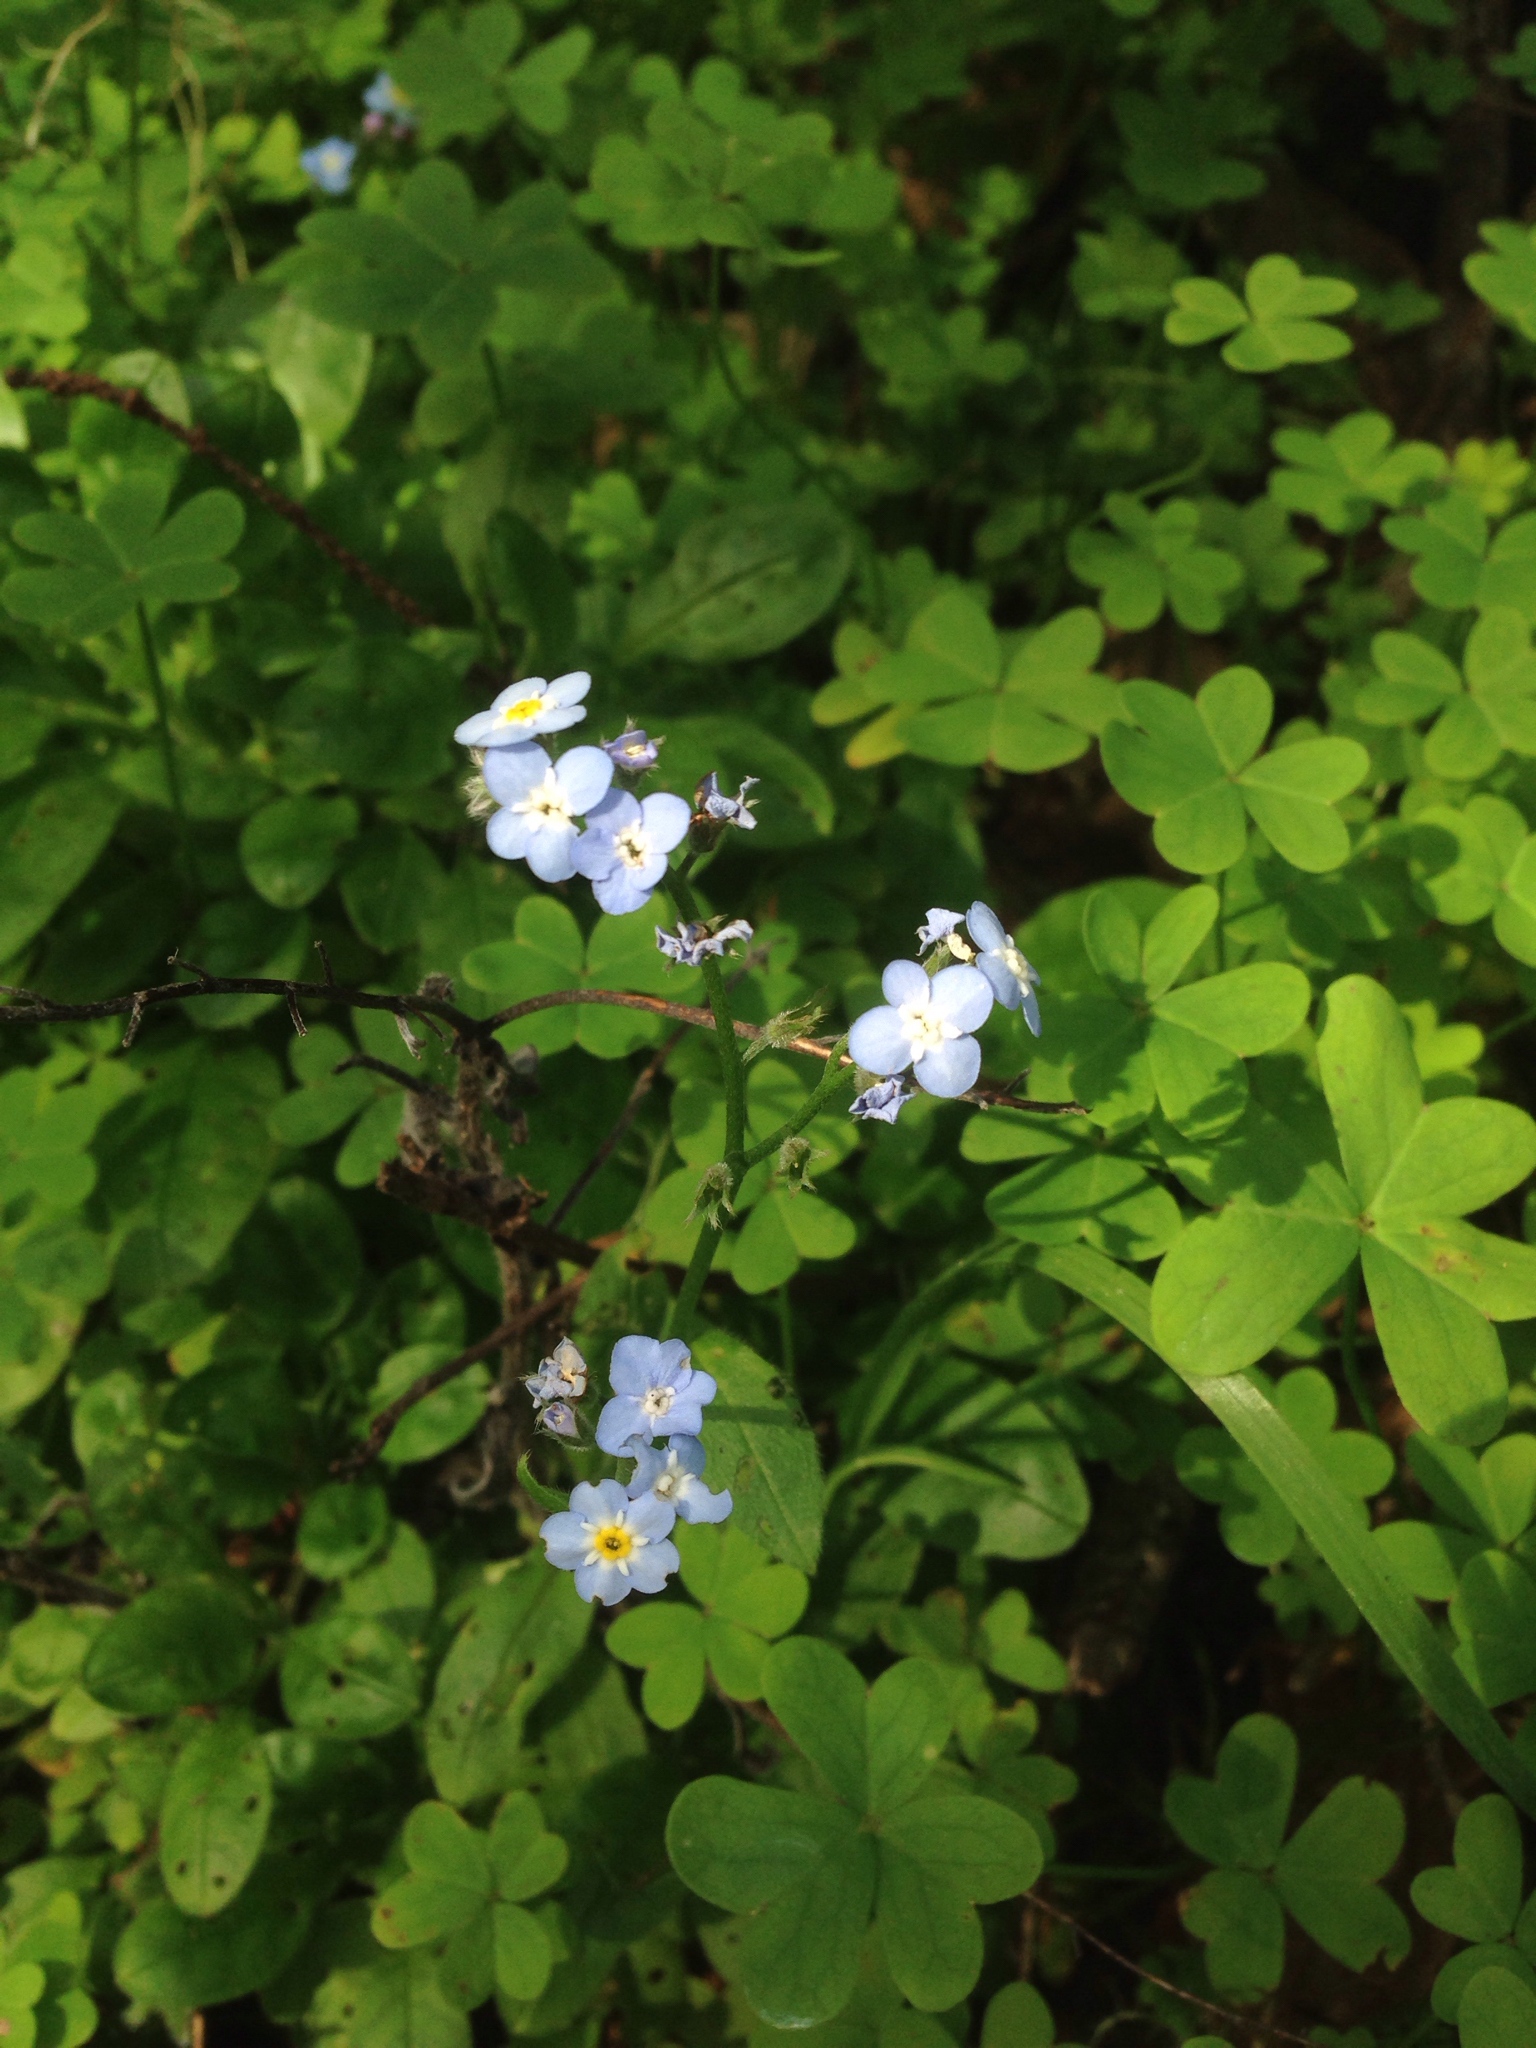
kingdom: Plantae
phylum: Tracheophyta
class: Magnoliopsida
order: Boraginales
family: Boraginaceae
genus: Myosotis
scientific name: Myosotis latifolia
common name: Broadleaf forget-me-not
